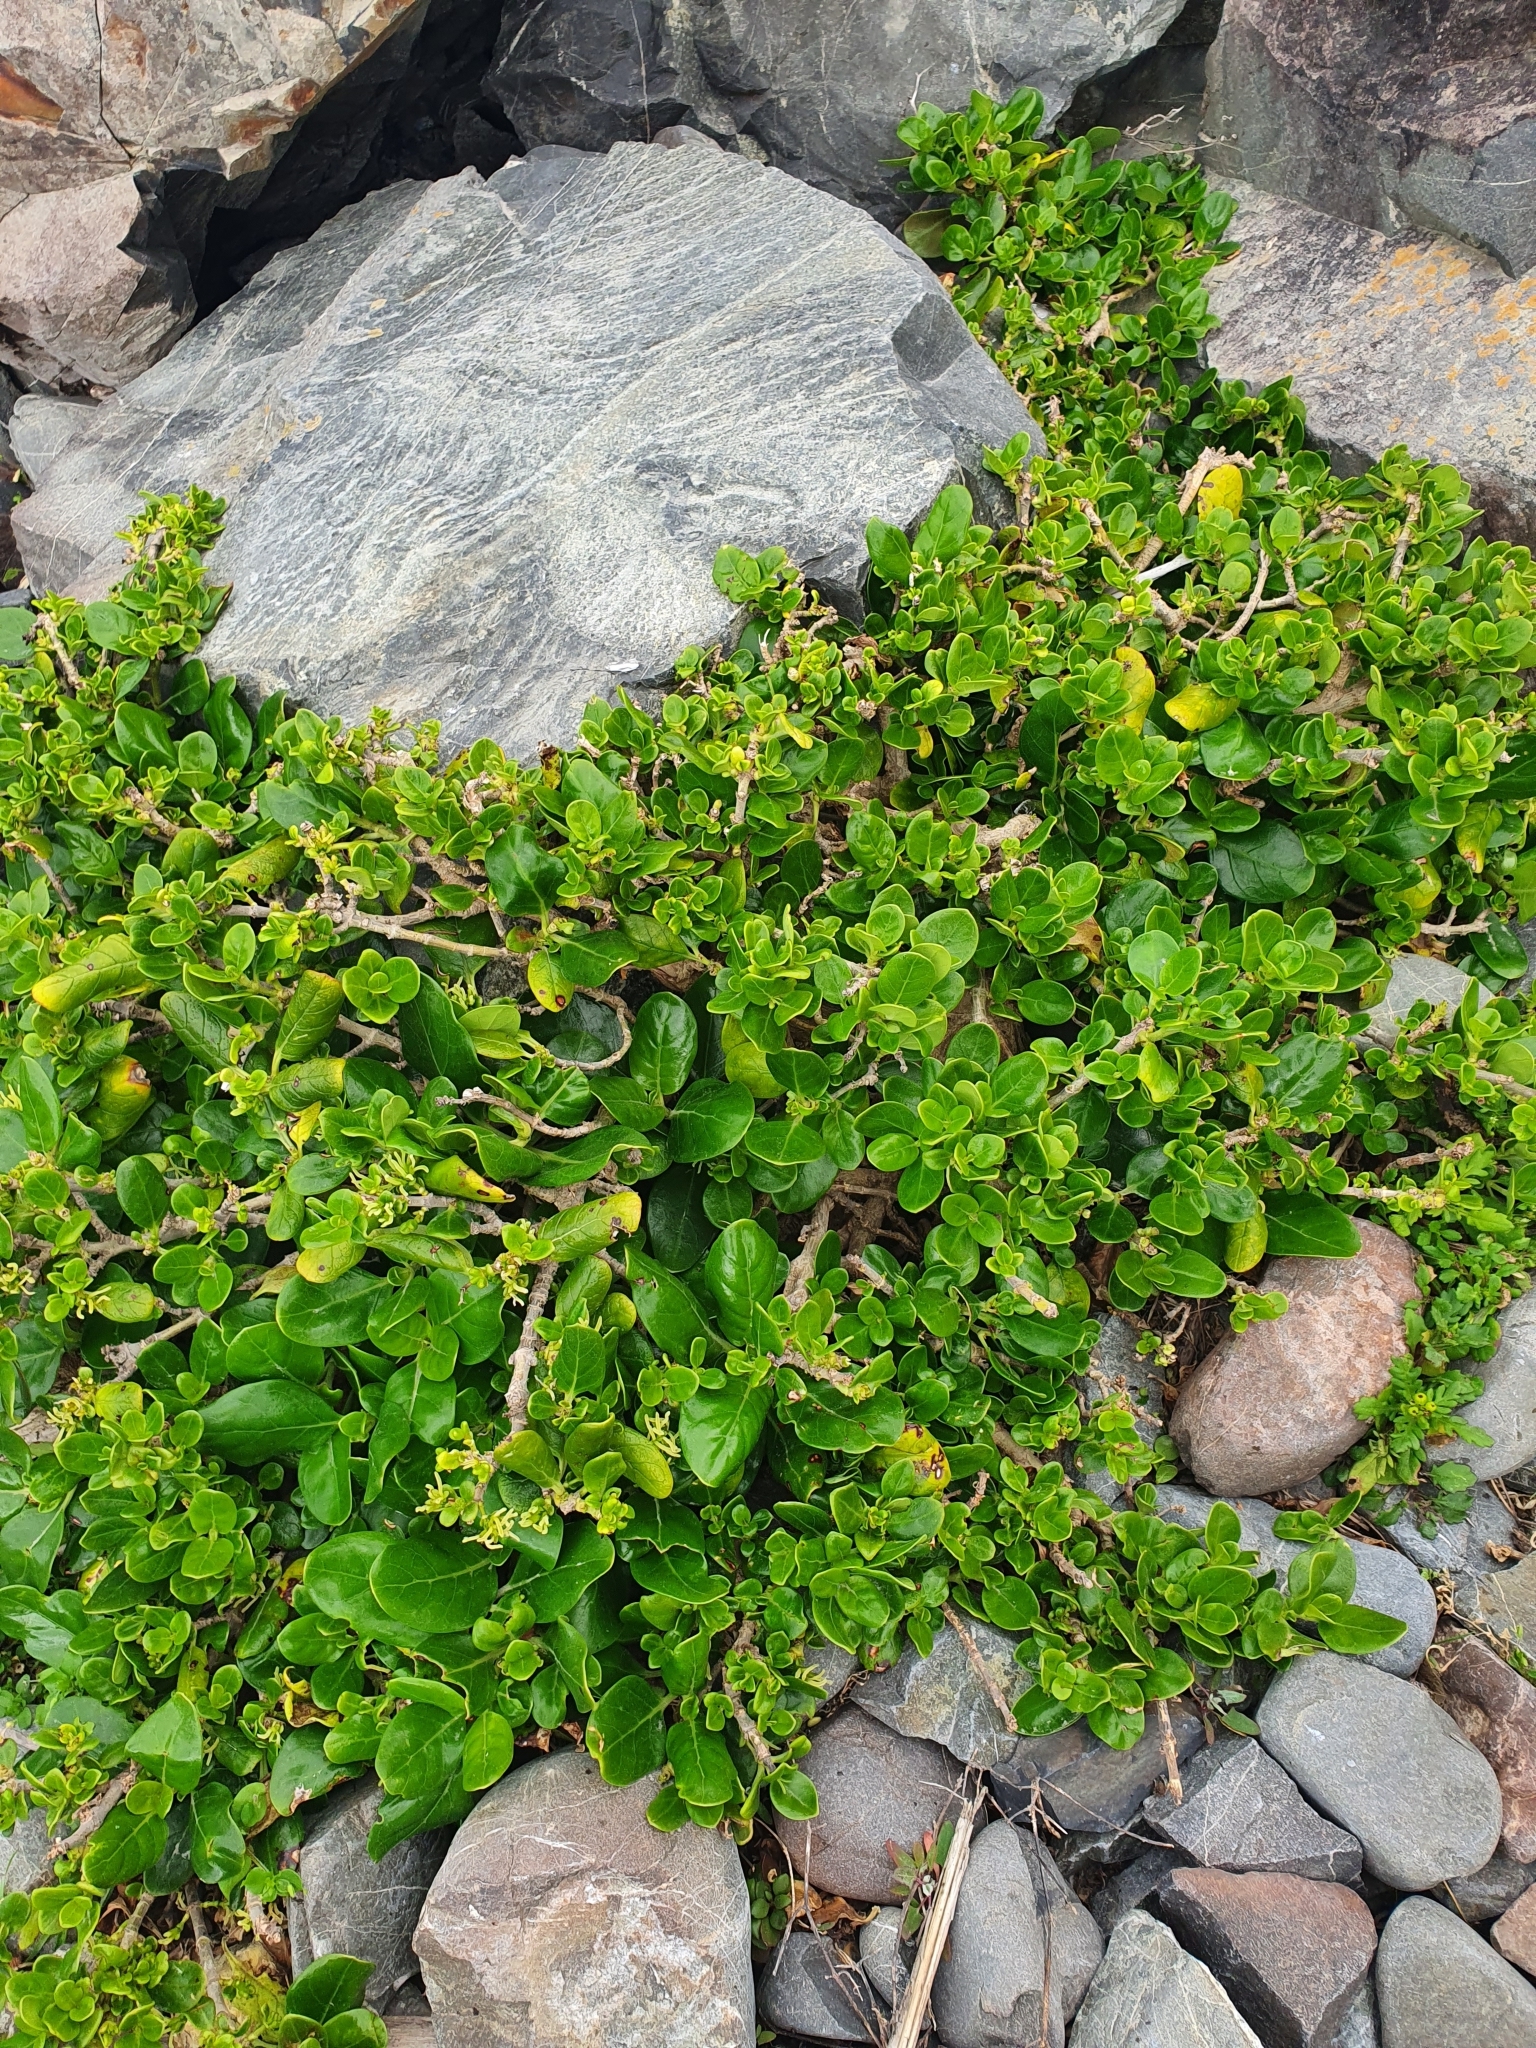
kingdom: Plantae
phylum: Tracheophyta
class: Magnoliopsida
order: Gentianales
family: Rubiaceae
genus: Coprosma
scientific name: Coprosma repens
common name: Tree bedstraw
